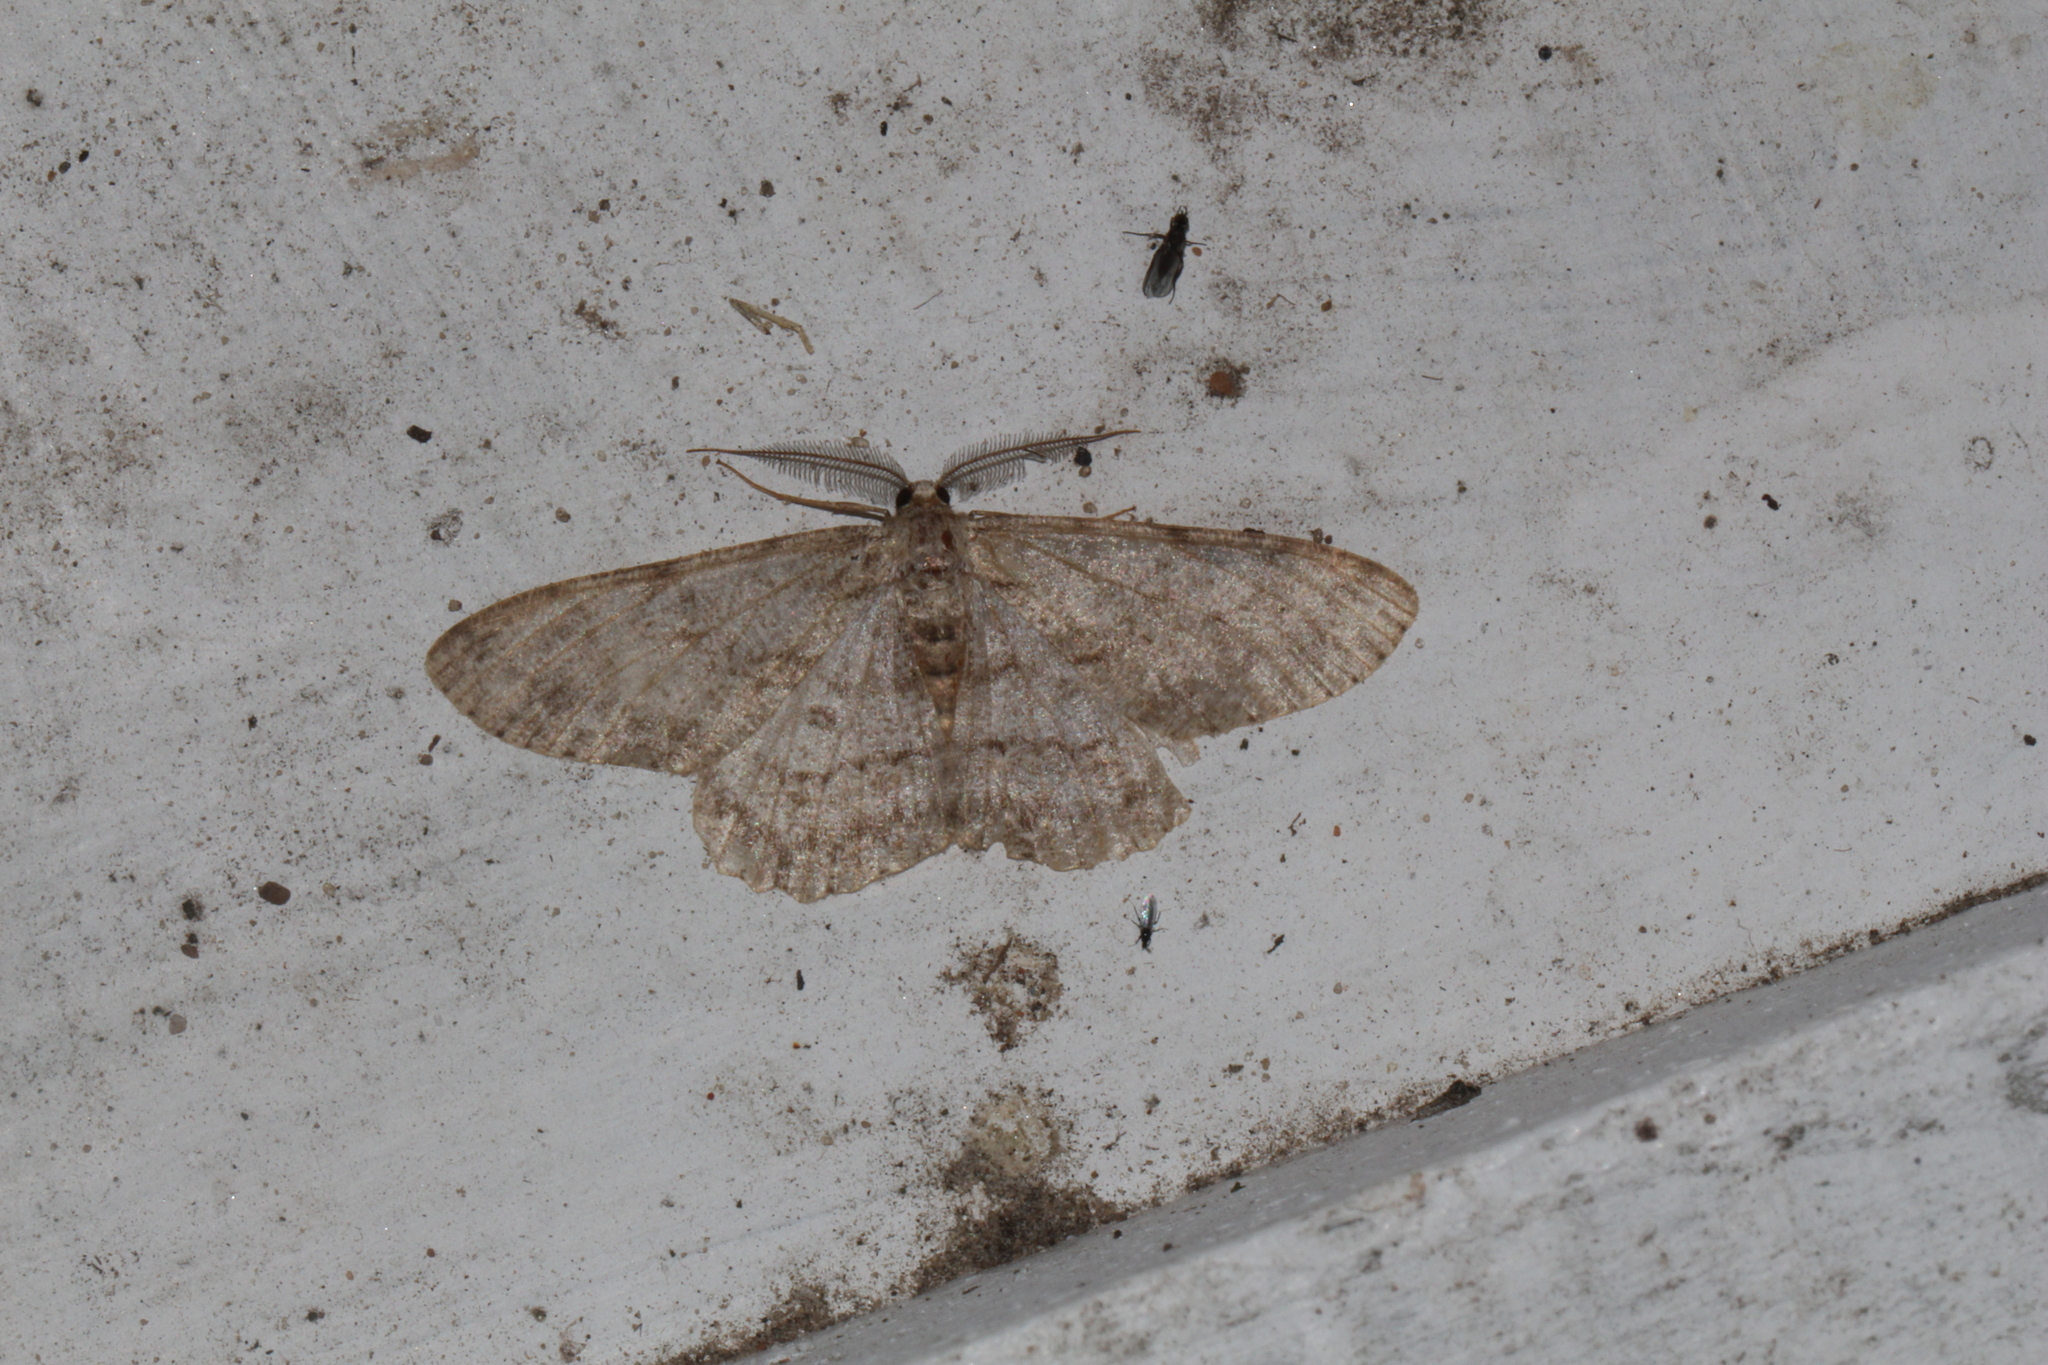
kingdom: Animalia
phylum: Arthropoda
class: Insecta
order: Lepidoptera
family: Geometridae
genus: Hypomecis
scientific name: Hypomecis punctinalis
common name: Pale oak beauty
